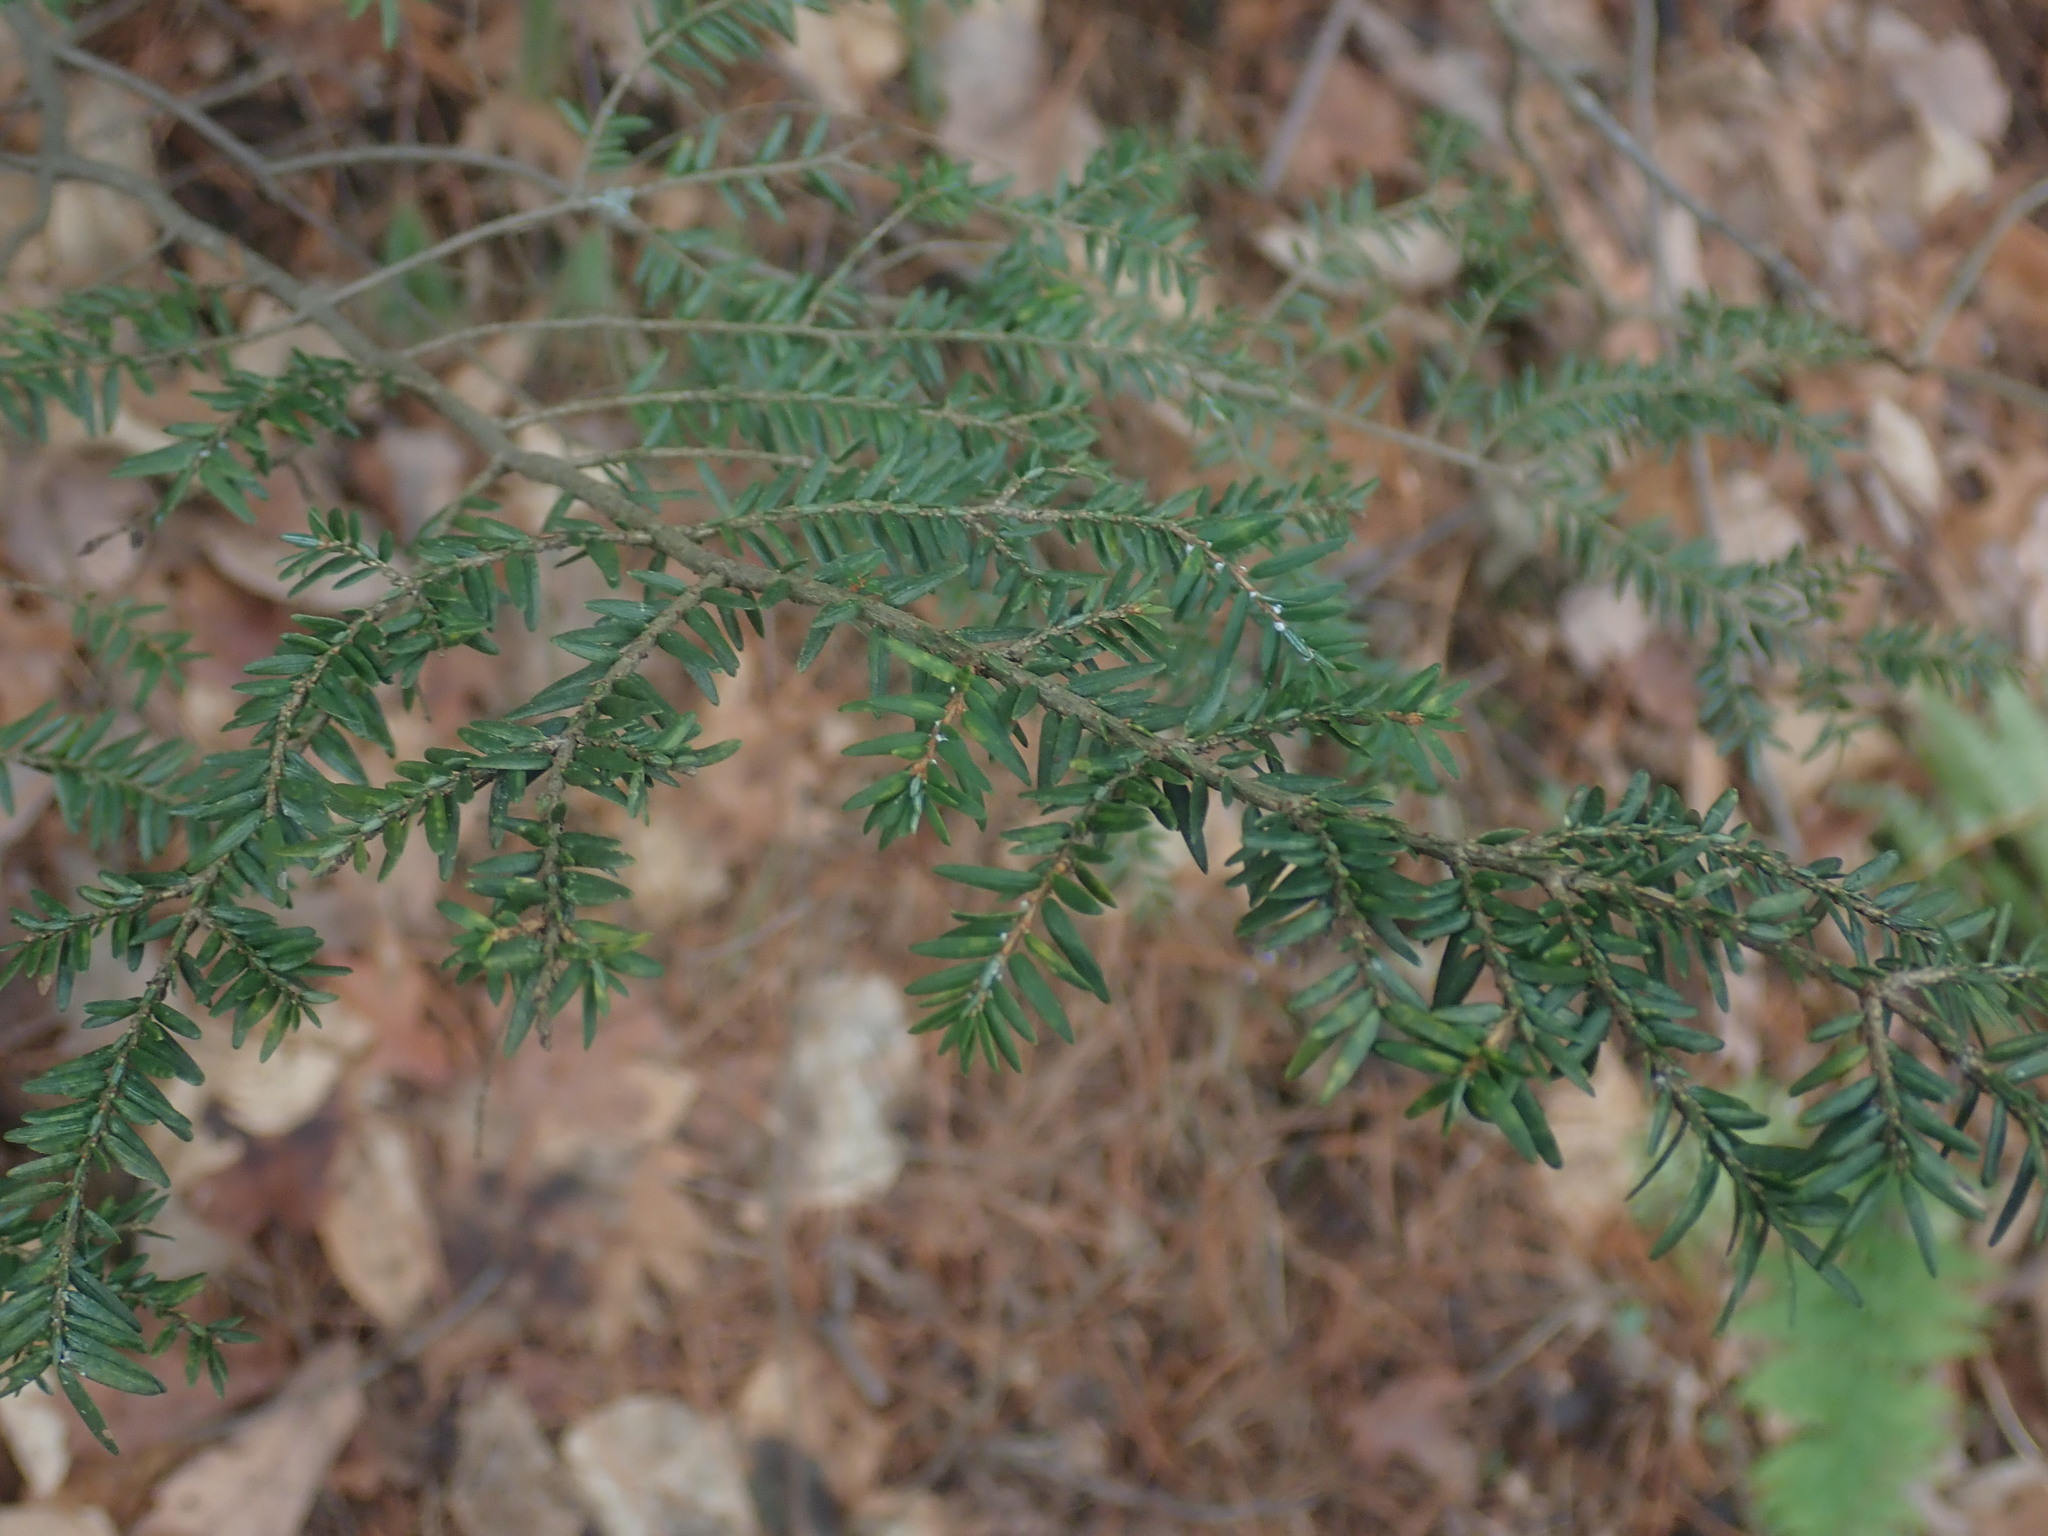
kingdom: Plantae
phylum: Tracheophyta
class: Pinopsida
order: Pinales
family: Pinaceae
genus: Tsuga
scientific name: Tsuga canadensis
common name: Eastern hemlock
